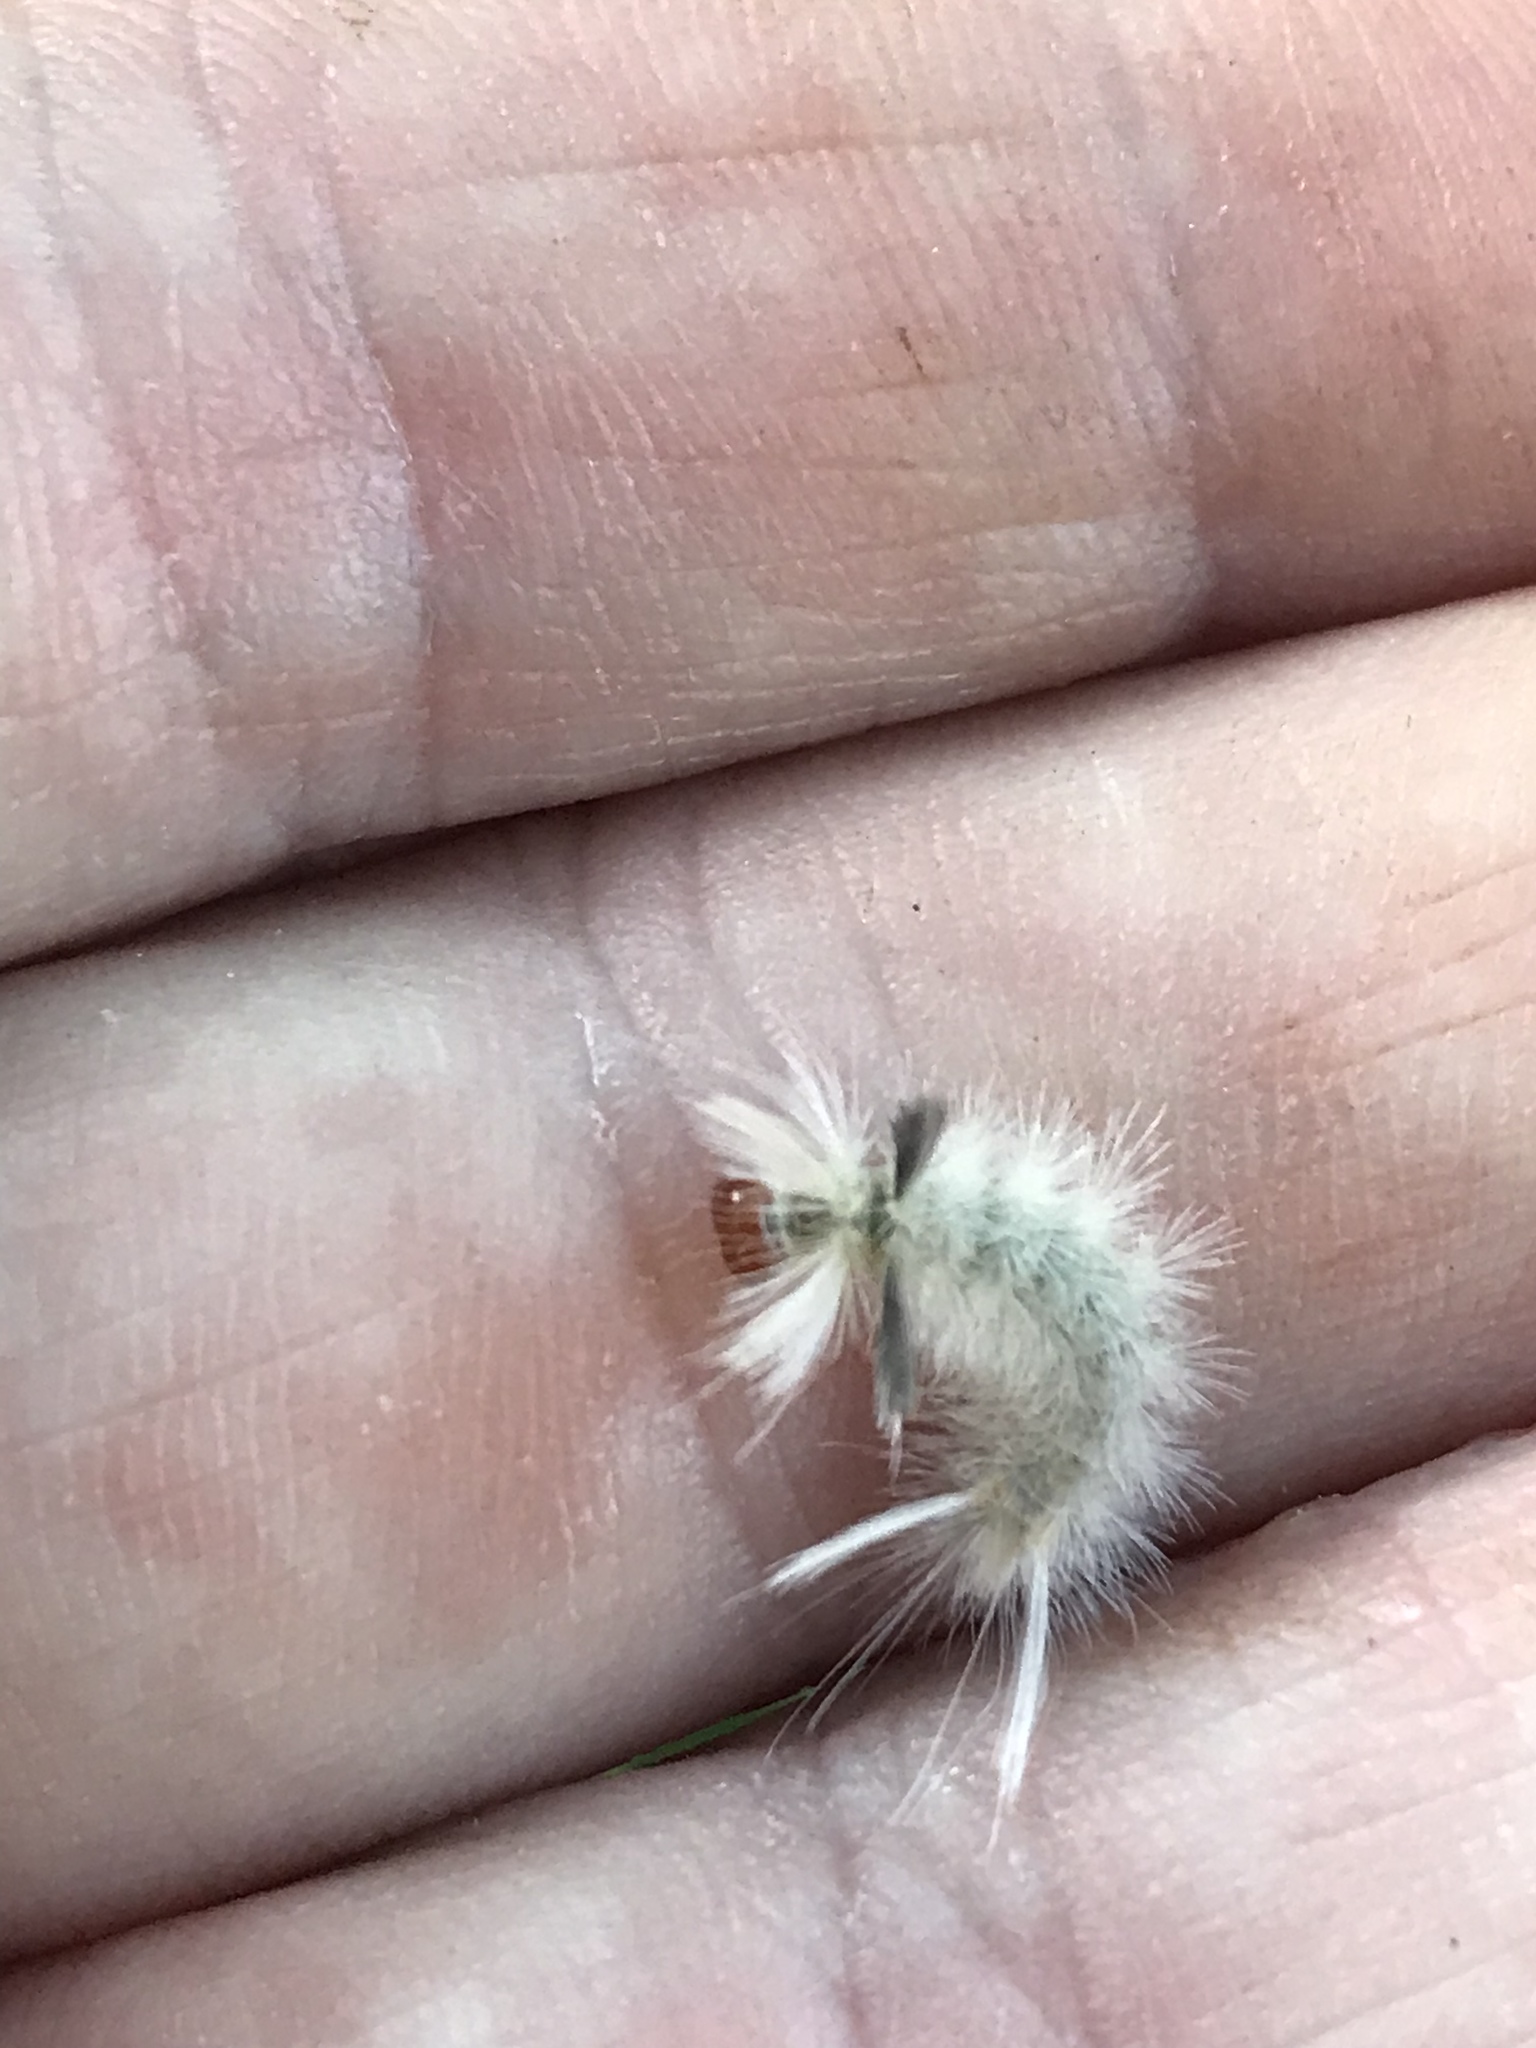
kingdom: Animalia
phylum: Arthropoda
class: Insecta
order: Lepidoptera
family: Erebidae
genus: Halysidota
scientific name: Halysidota tessellaris
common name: Banded tussock moth
